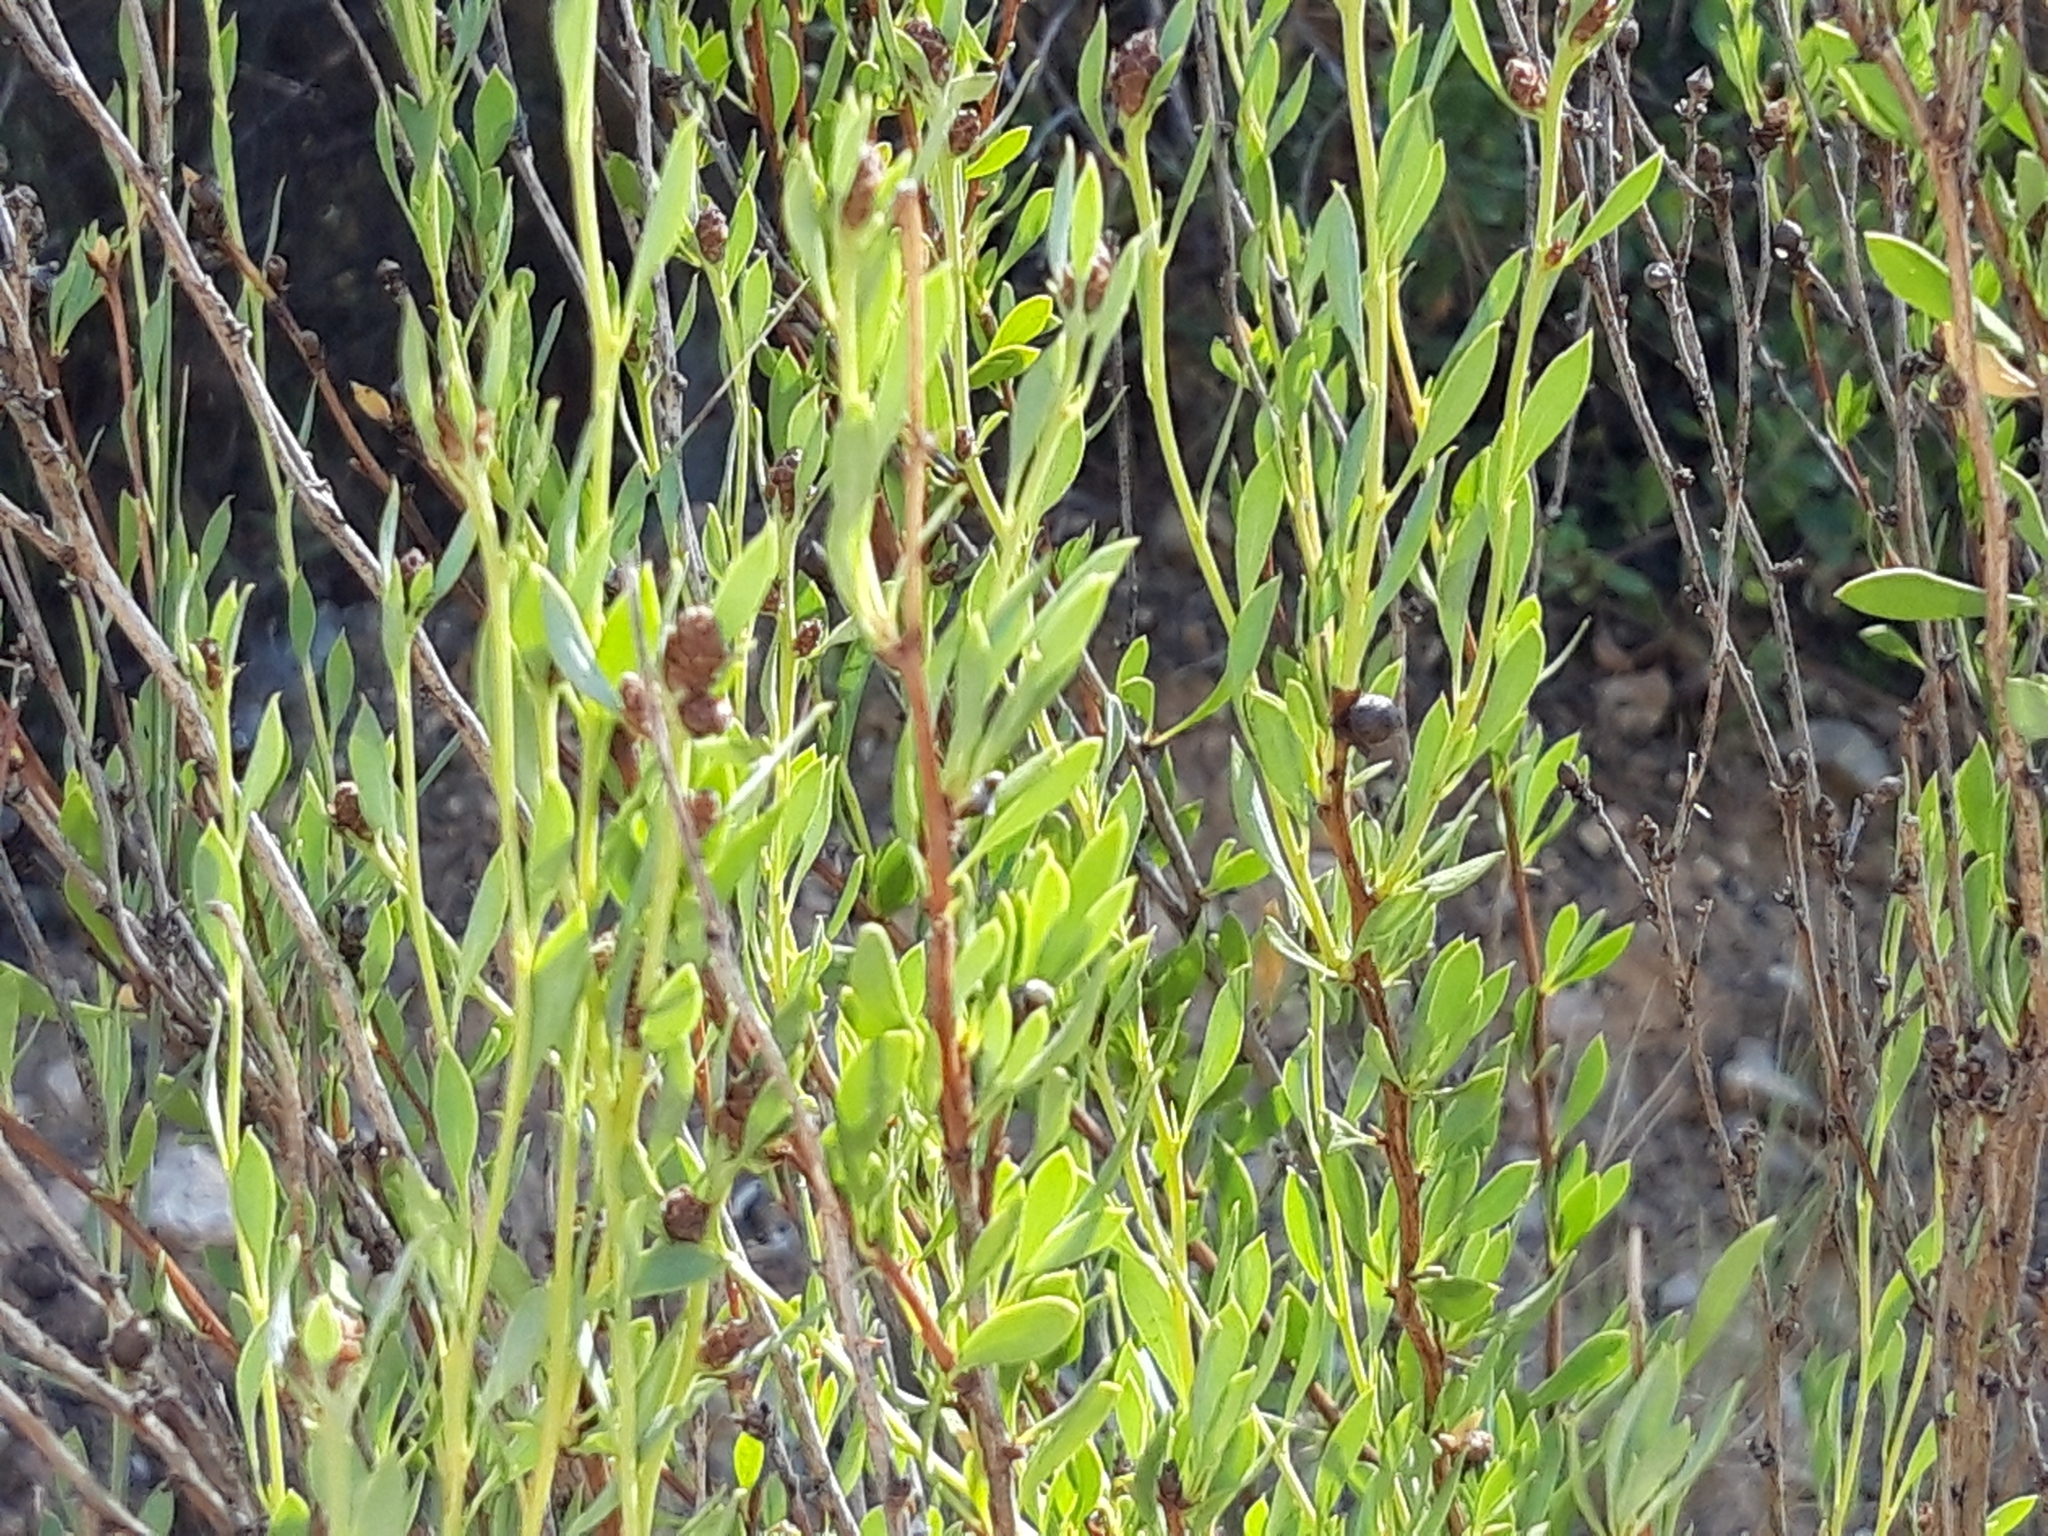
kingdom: Plantae
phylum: Tracheophyta
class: Magnoliopsida
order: Lamiales
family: Plantaginaceae
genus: Globularia
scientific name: Globularia alypum
